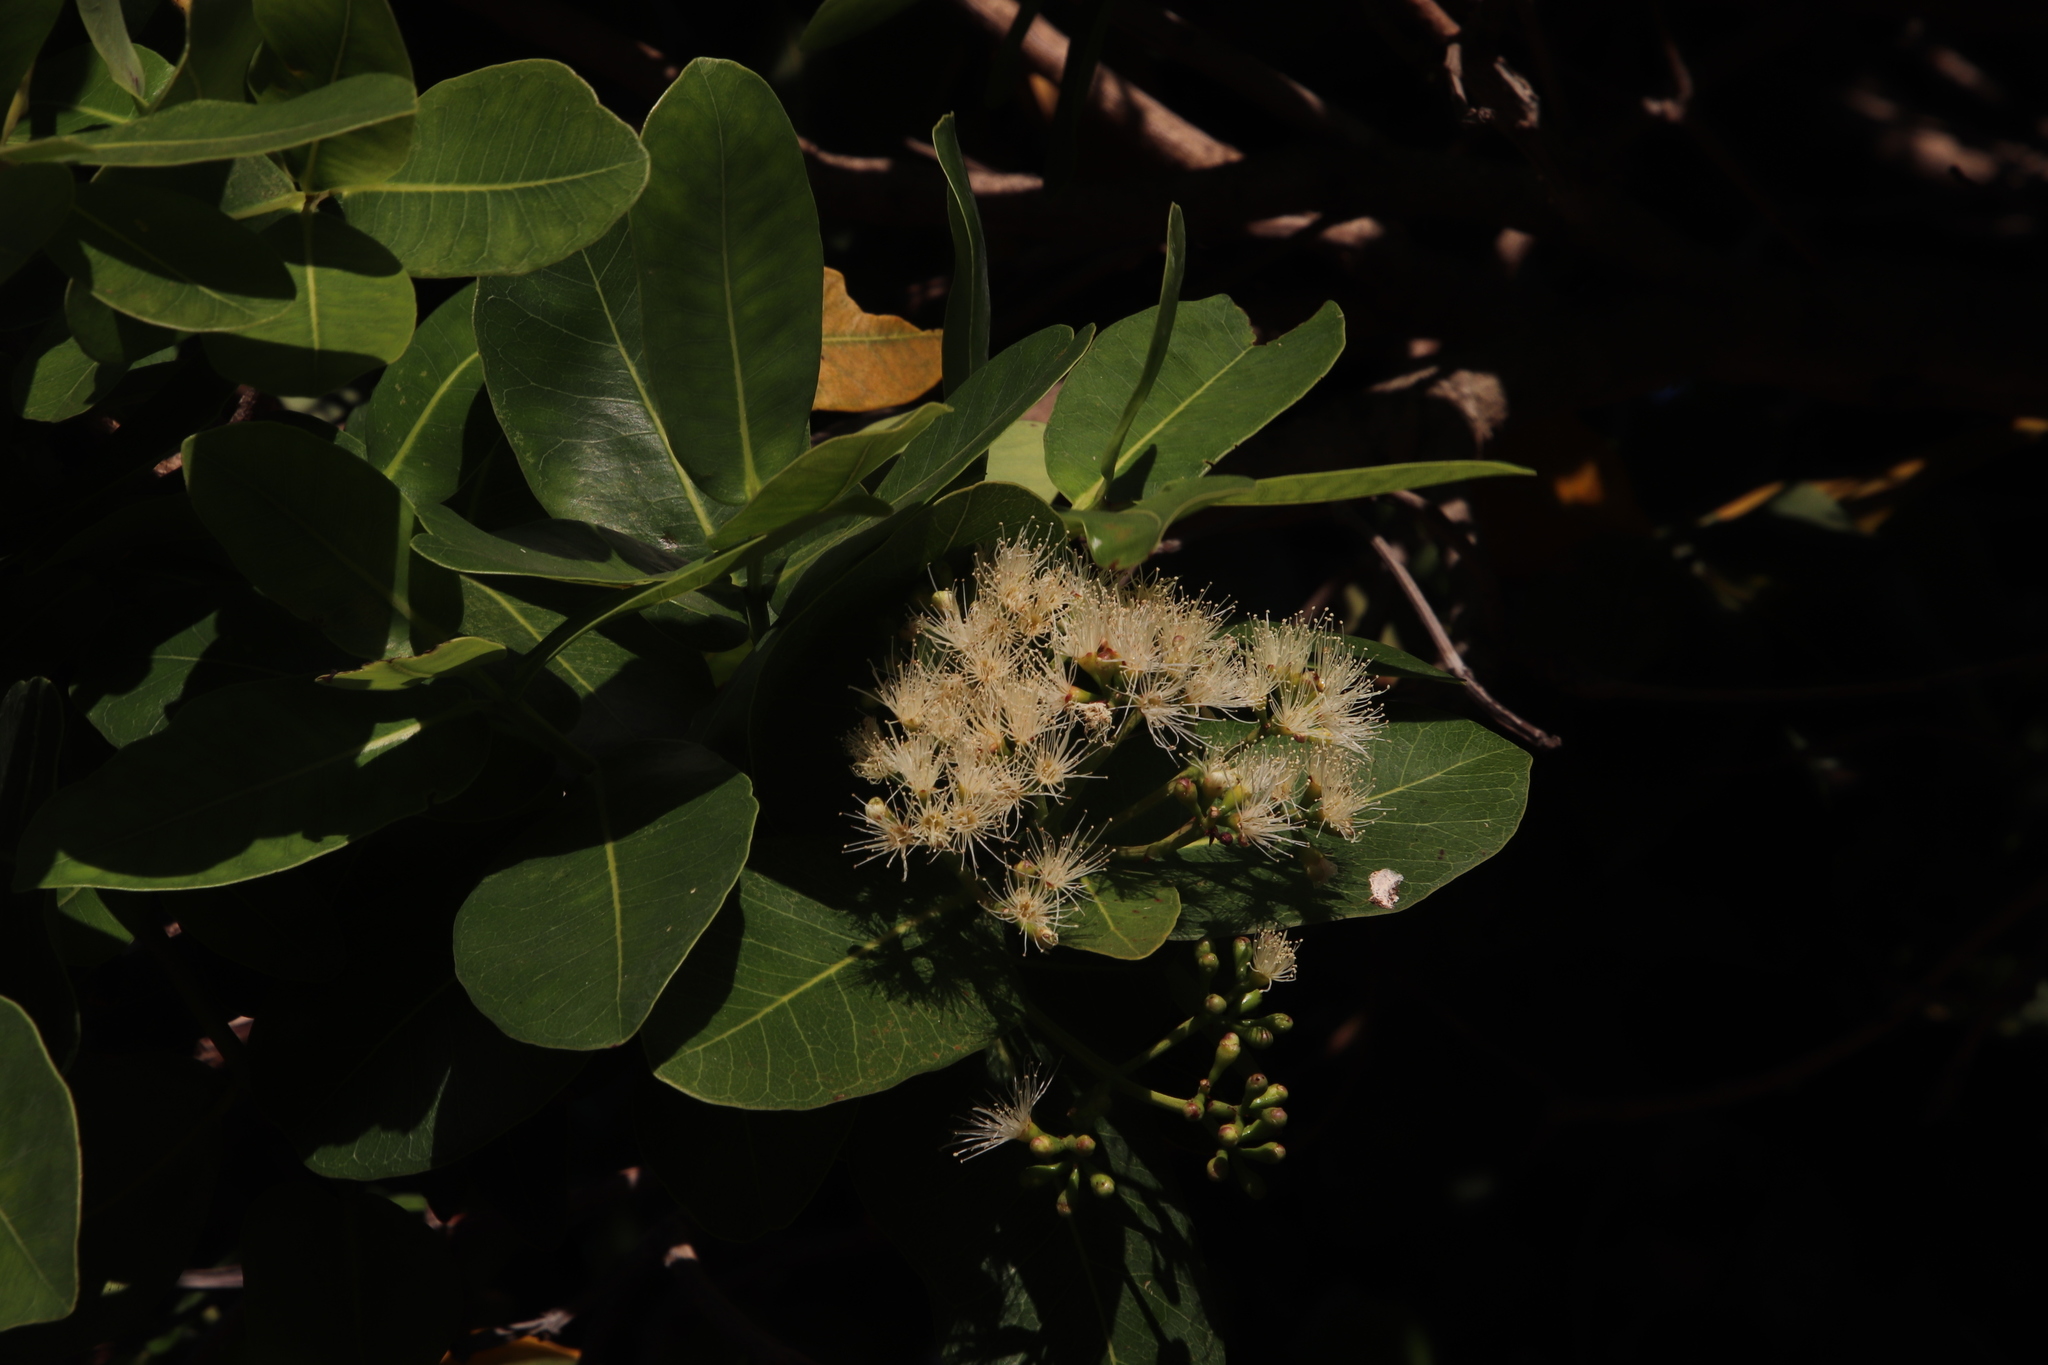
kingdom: Plantae
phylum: Tracheophyta
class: Magnoliopsida
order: Myrtales
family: Myrtaceae
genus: Syzygium
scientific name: Syzygium cordatum
